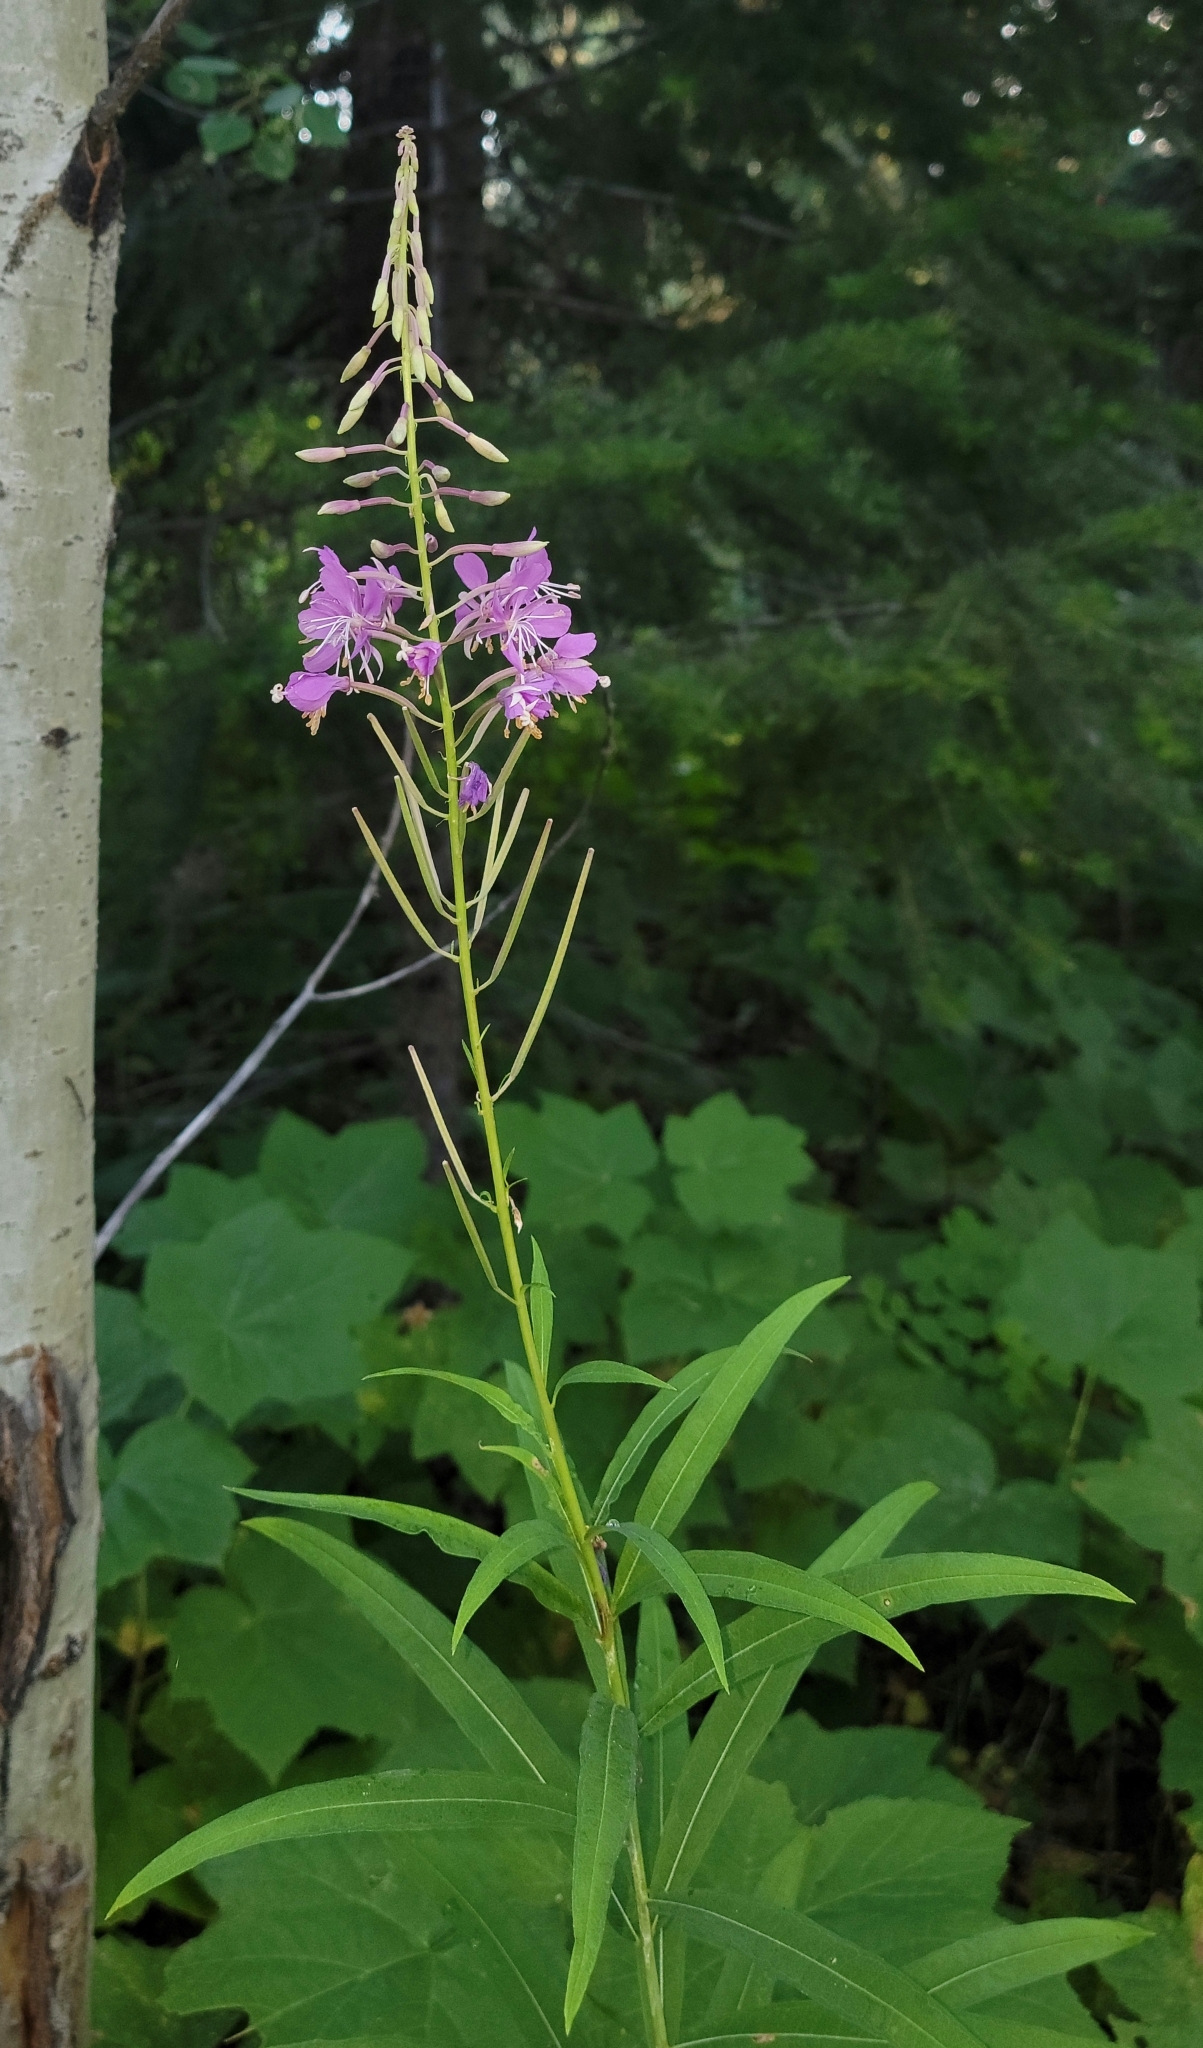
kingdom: Plantae
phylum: Tracheophyta
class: Magnoliopsida
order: Myrtales
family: Onagraceae
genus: Chamaenerion
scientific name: Chamaenerion angustifolium
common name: Fireweed
